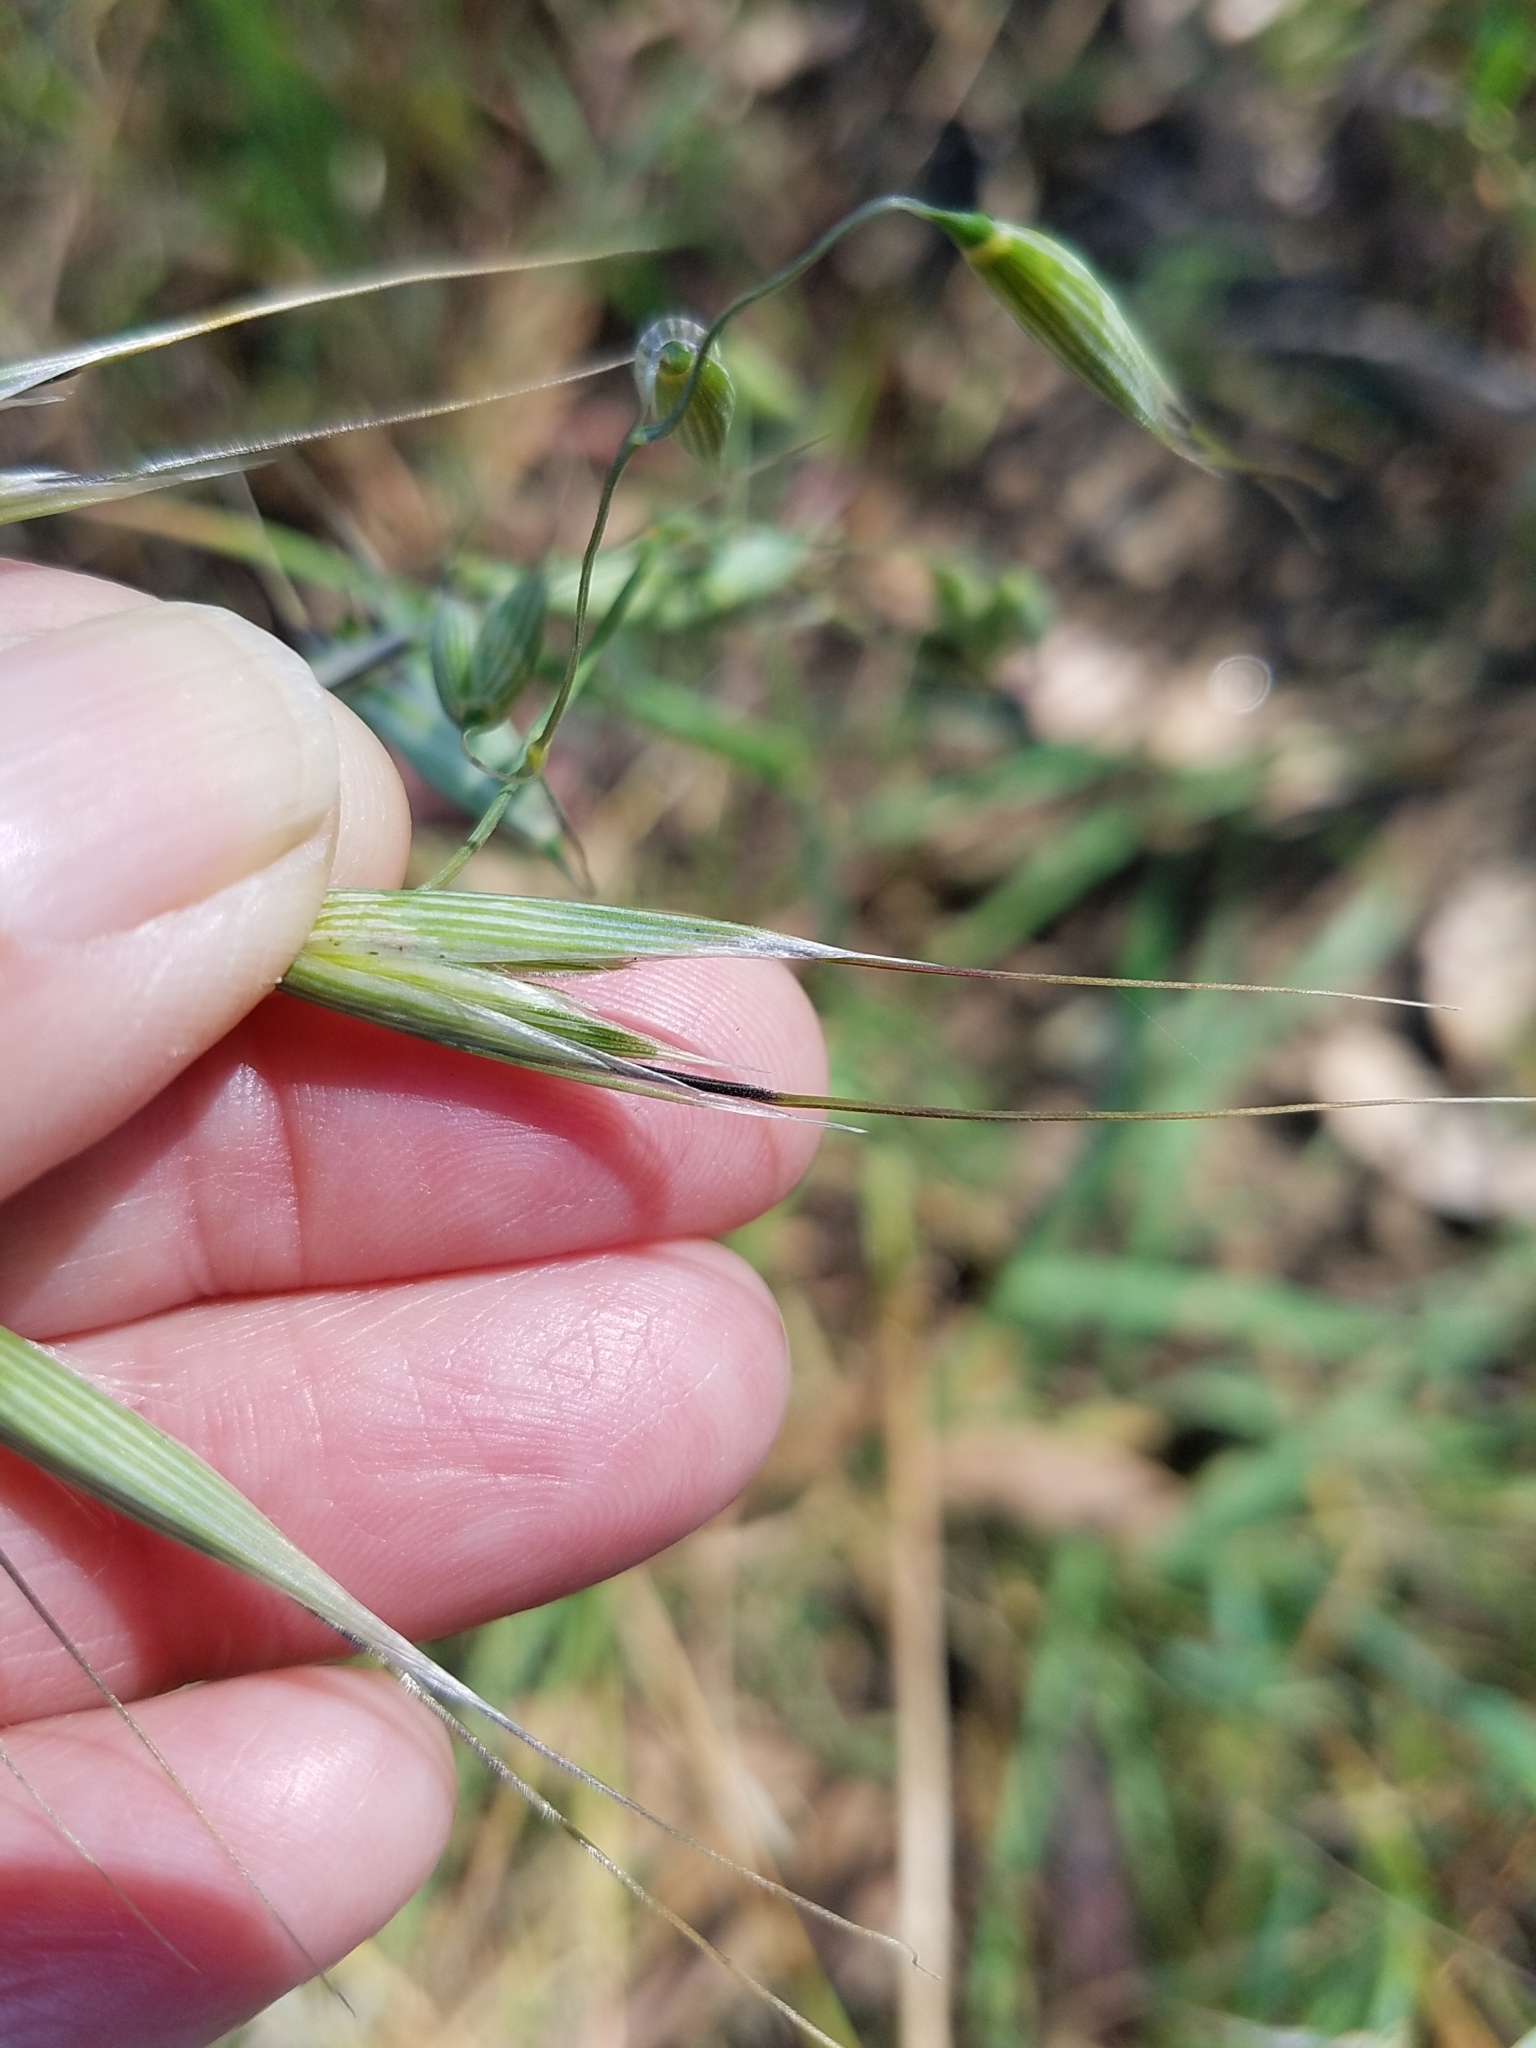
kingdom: Plantae
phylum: Tracheophyta
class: Liliopsida
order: Poales
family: Poaceae
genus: Avena
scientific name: Avena barbata
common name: Slender oat
